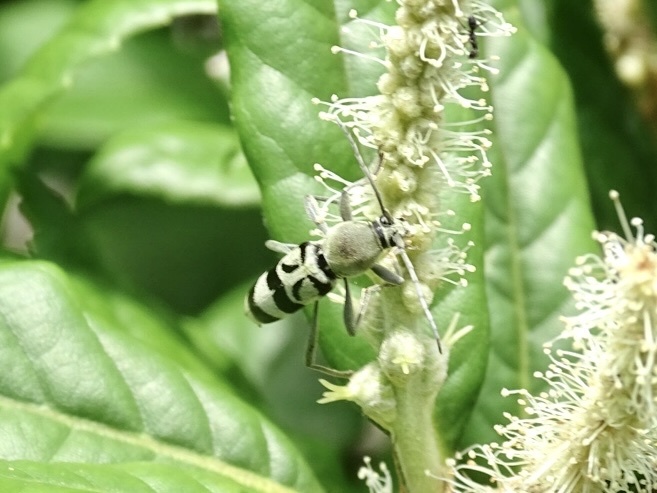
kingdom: Animalia
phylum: Arthropoda
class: Insecta
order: Coleoptera
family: Cerambycidae
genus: Chlorophorus
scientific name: Chlorophorus douei
